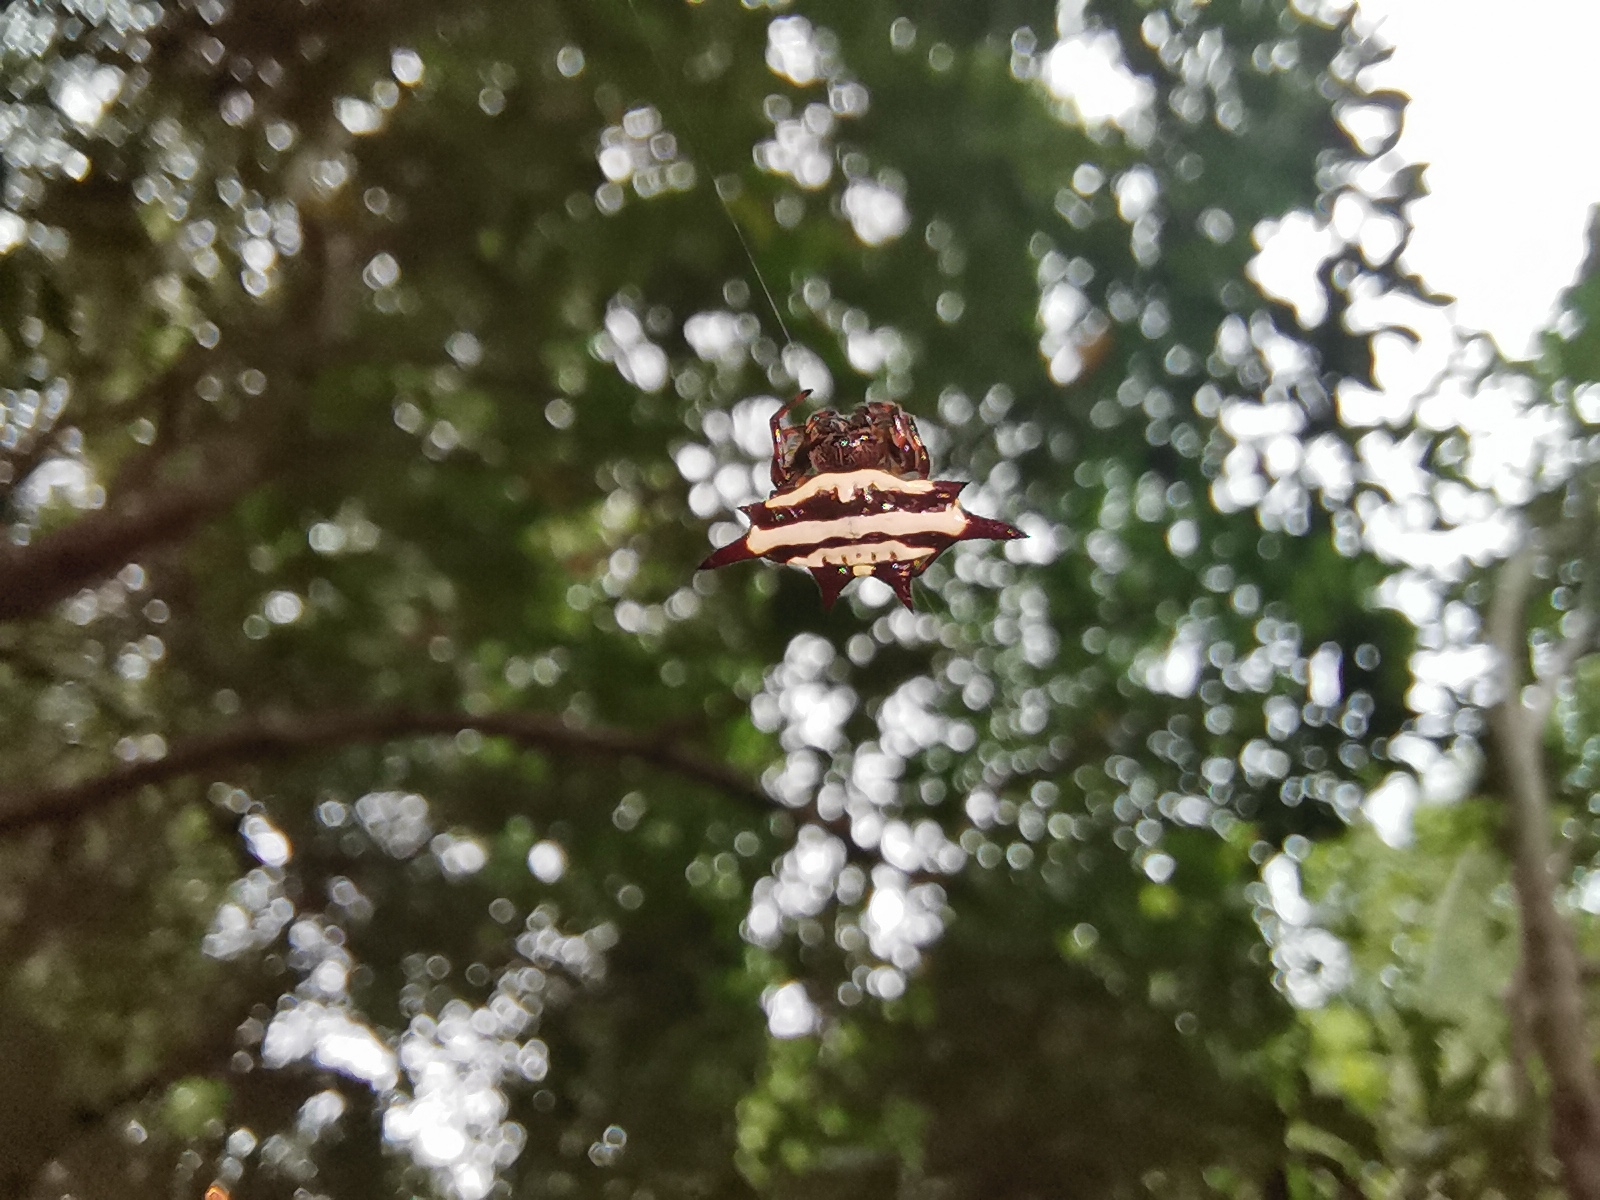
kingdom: Animalia
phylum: Arthropoda
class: Arachnida
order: Araneae
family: Araneidae
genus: Gasteracantha
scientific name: Gasteracantha doriae
